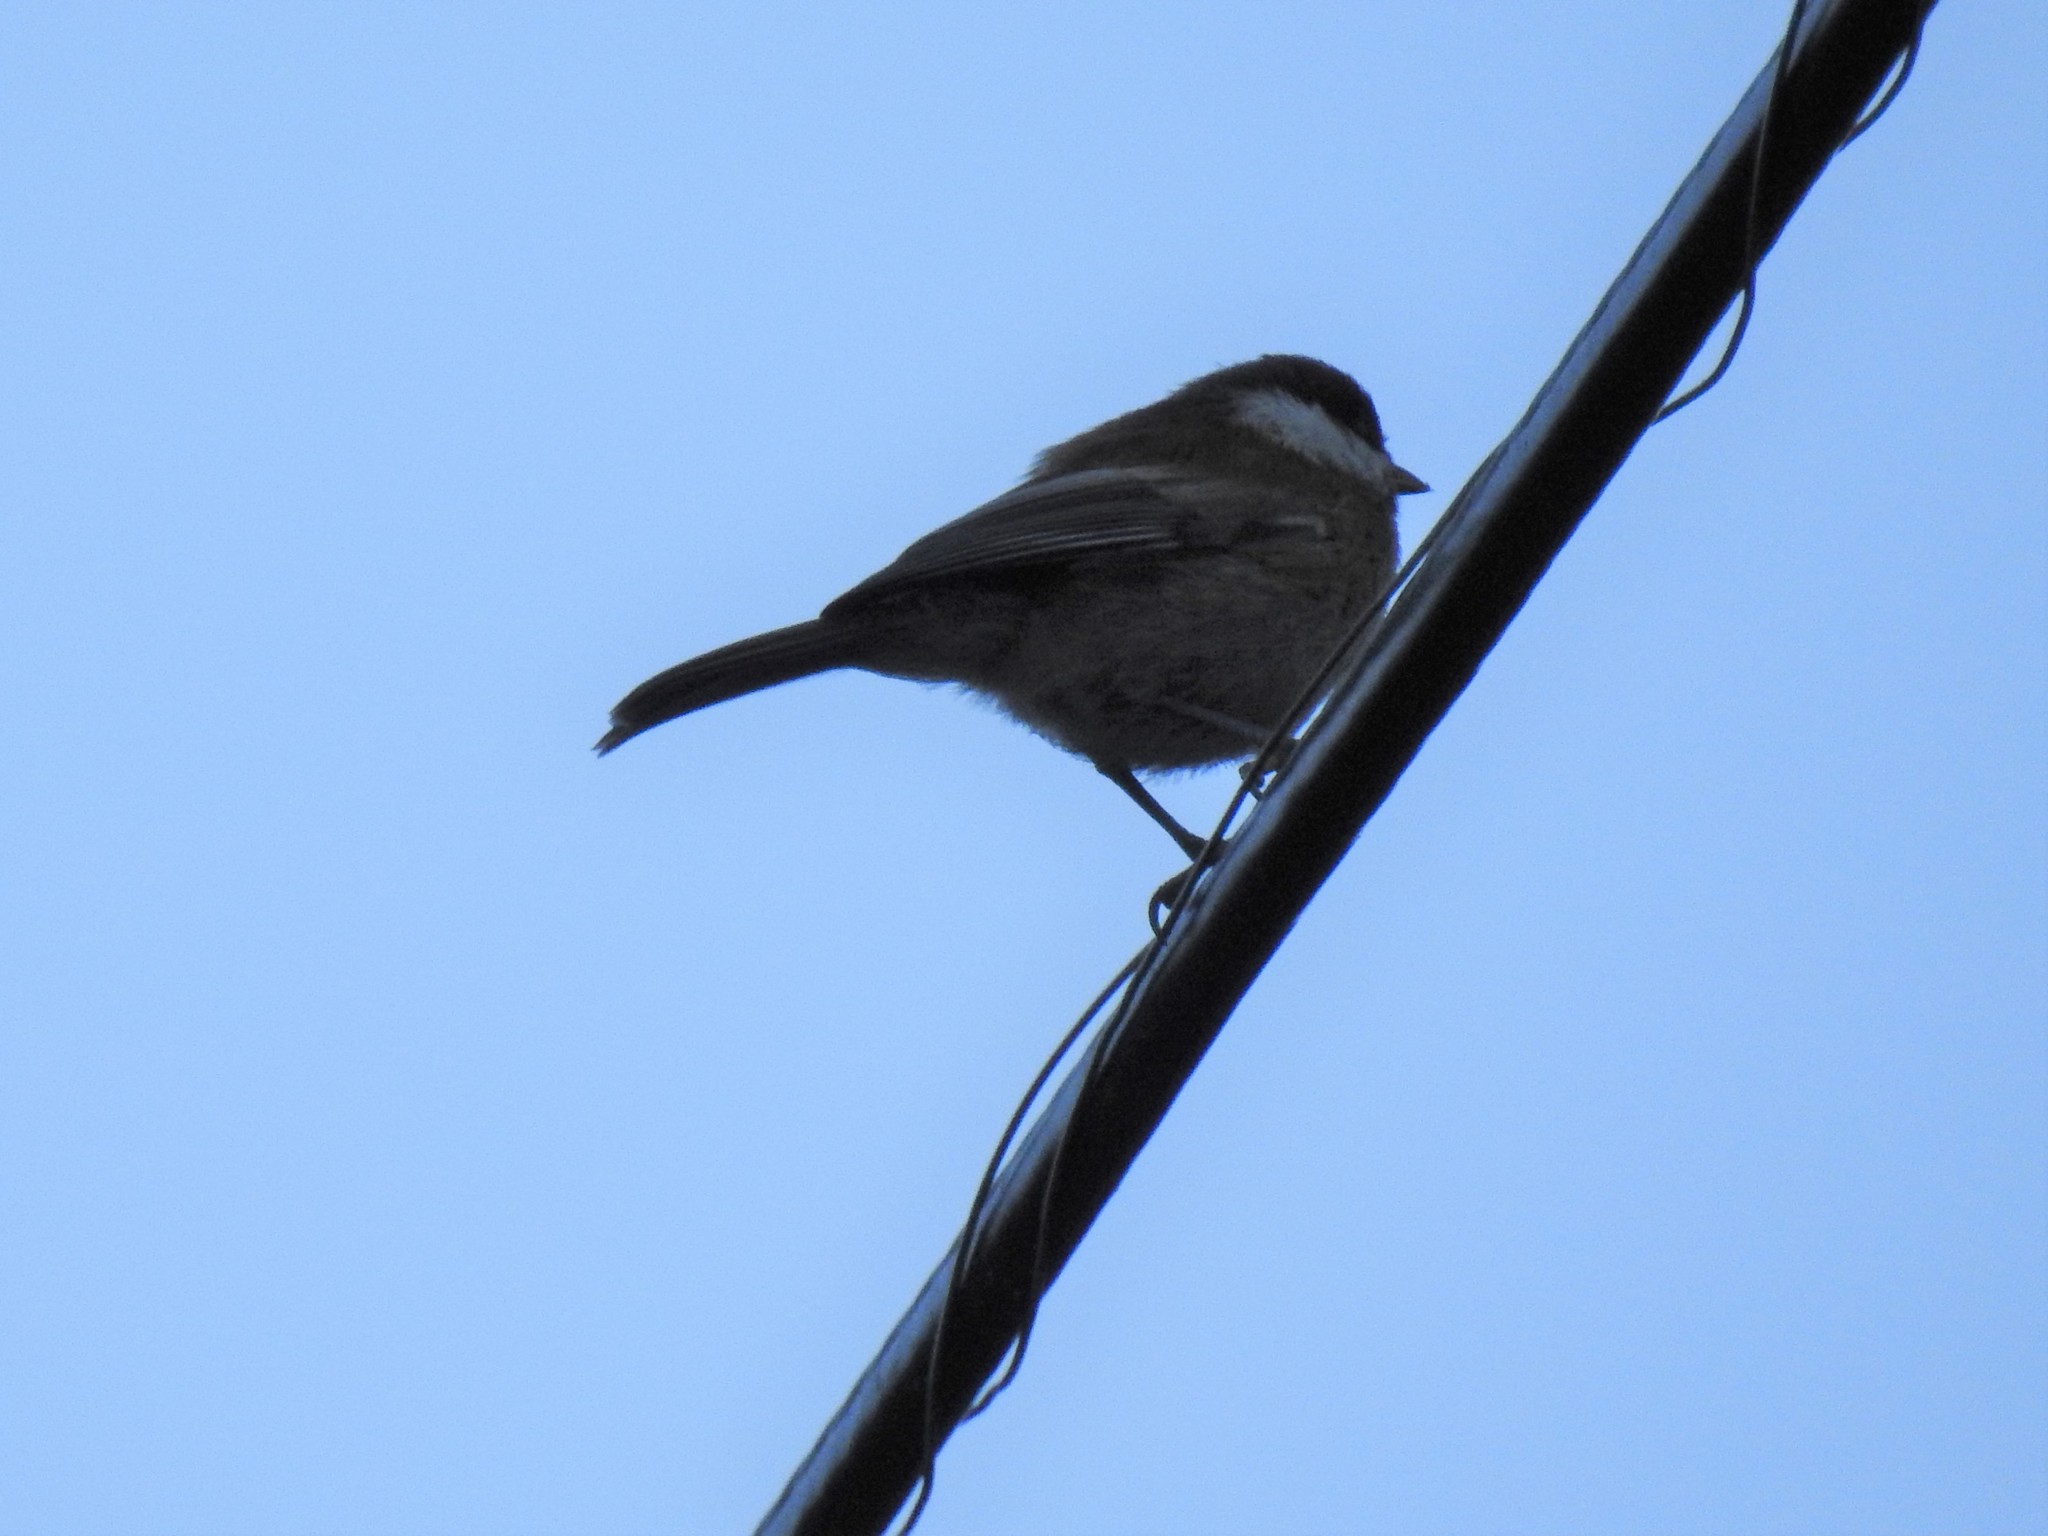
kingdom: Animalia
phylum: Chordata
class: Aves
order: Passeriformes
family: Paridae
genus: Poecile
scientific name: Poecile rufescens
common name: Chestnut-backed chickadee
